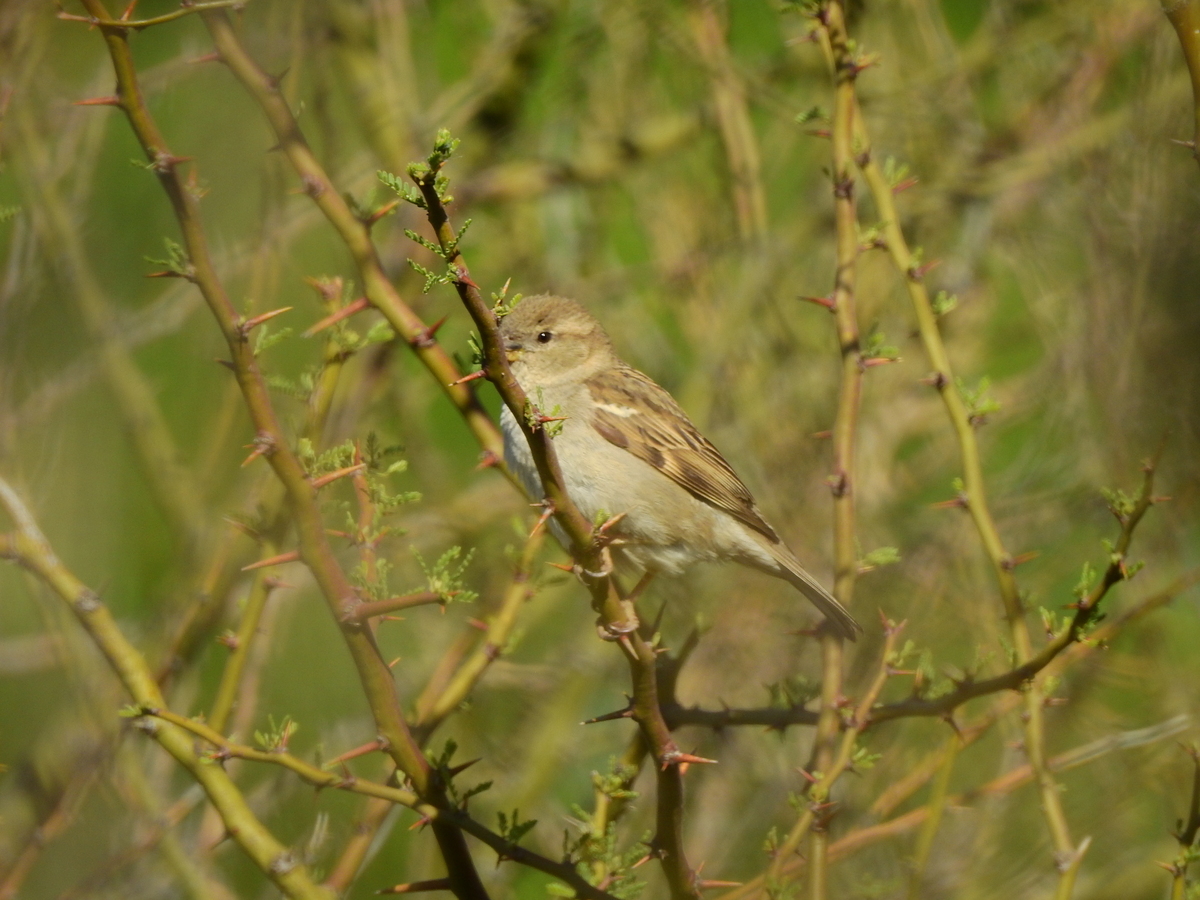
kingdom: Animalia
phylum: Chordata
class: Aves
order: Passeriformes
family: Passeridae
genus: Passer
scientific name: Passer domesticus
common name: House sparrow
